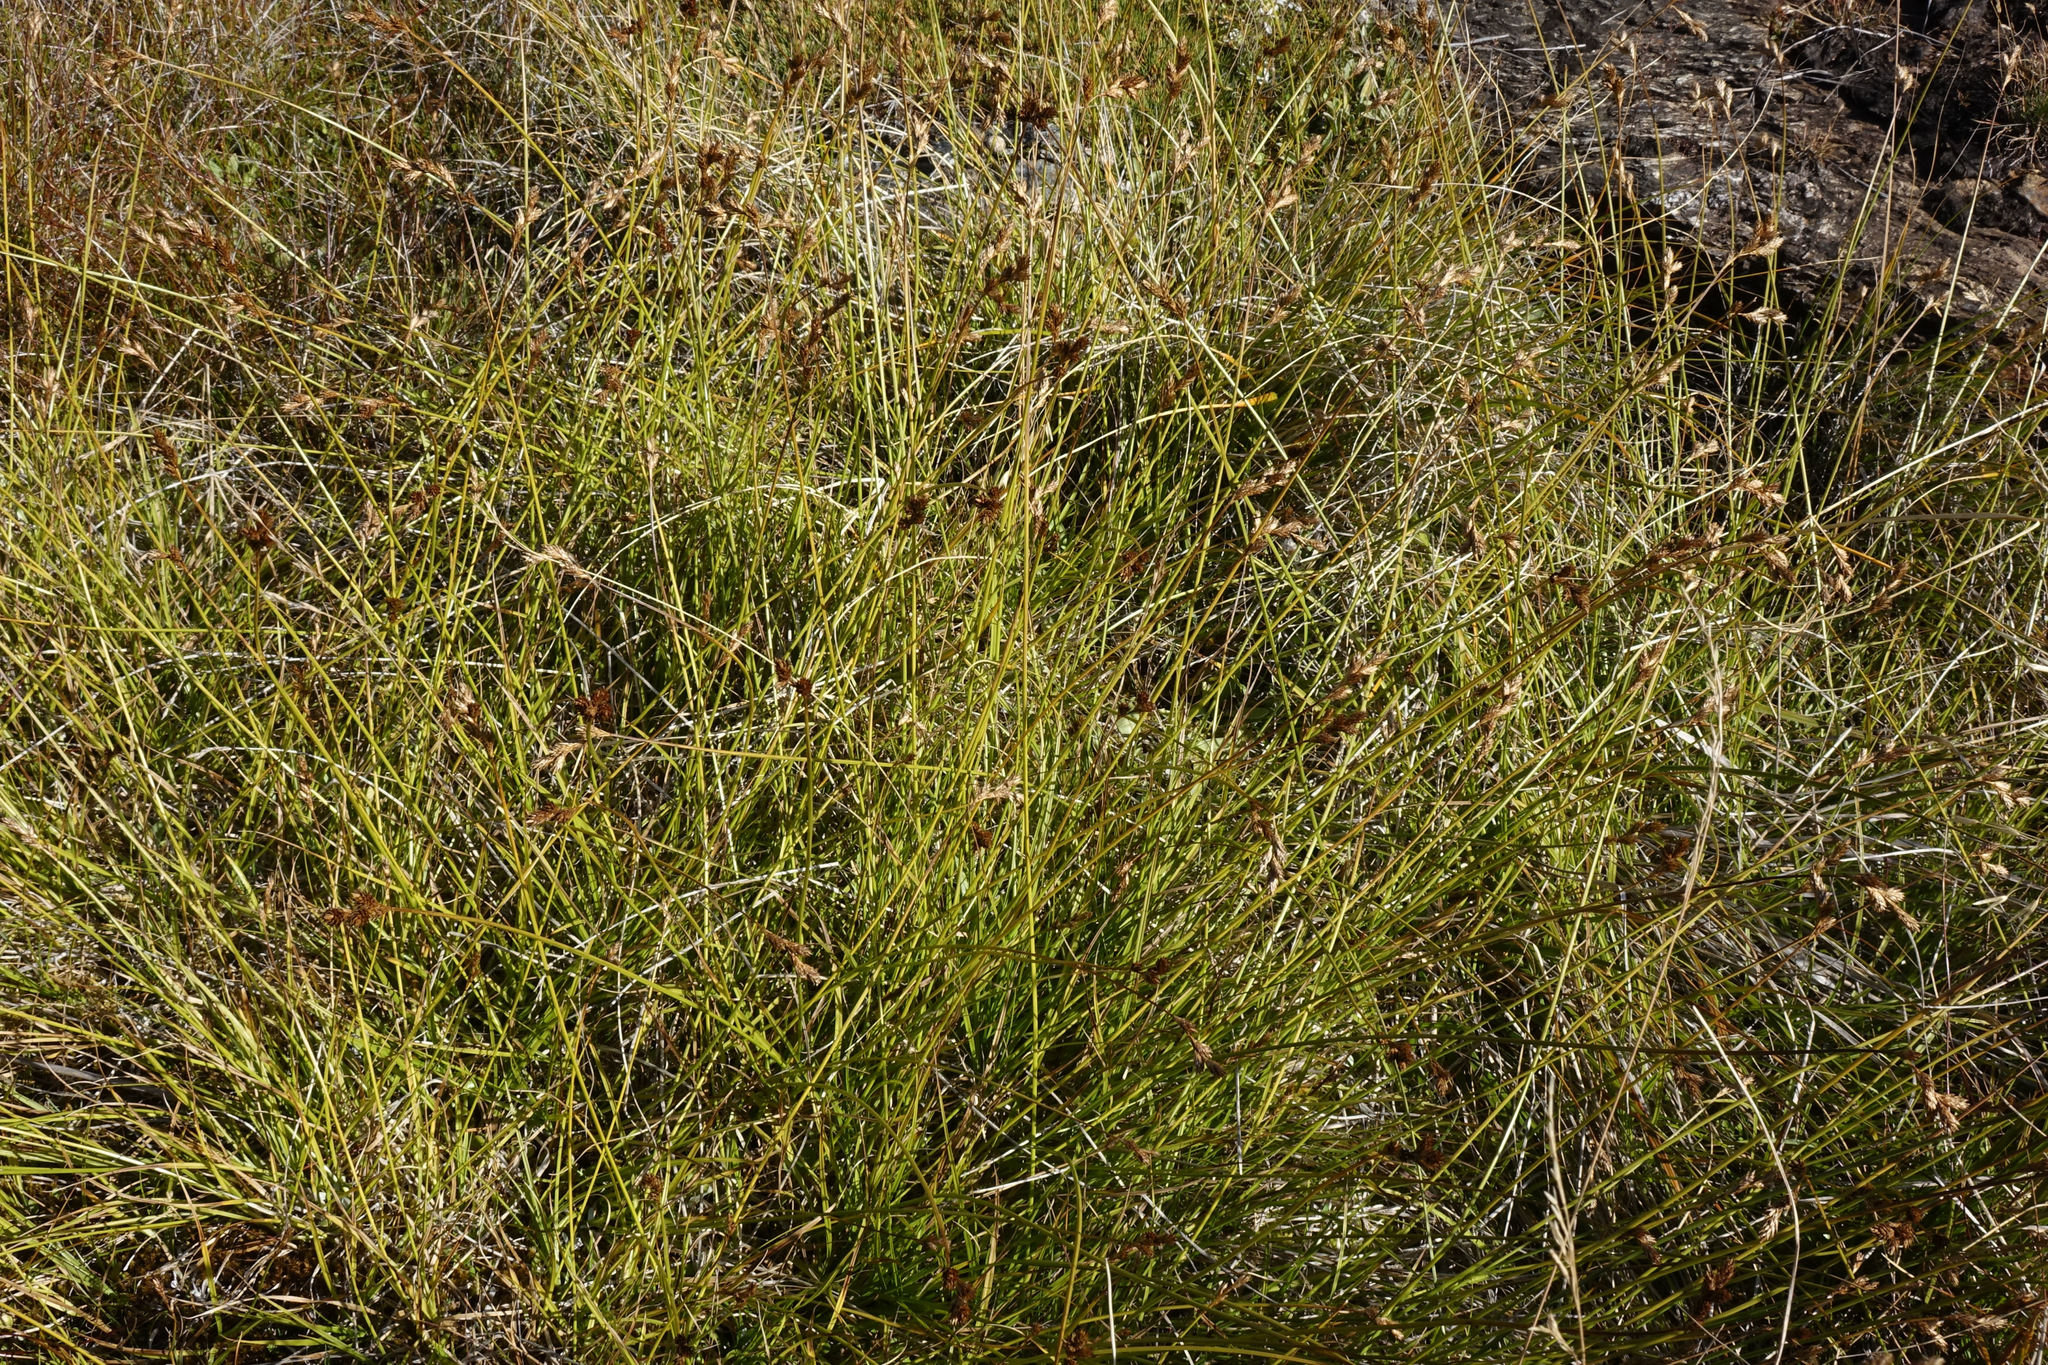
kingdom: Plantae
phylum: Tracheophyta
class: Liliopsida
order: Poales
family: Cyperaceae
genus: Carex
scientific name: Carex leporina
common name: Oval sedge
